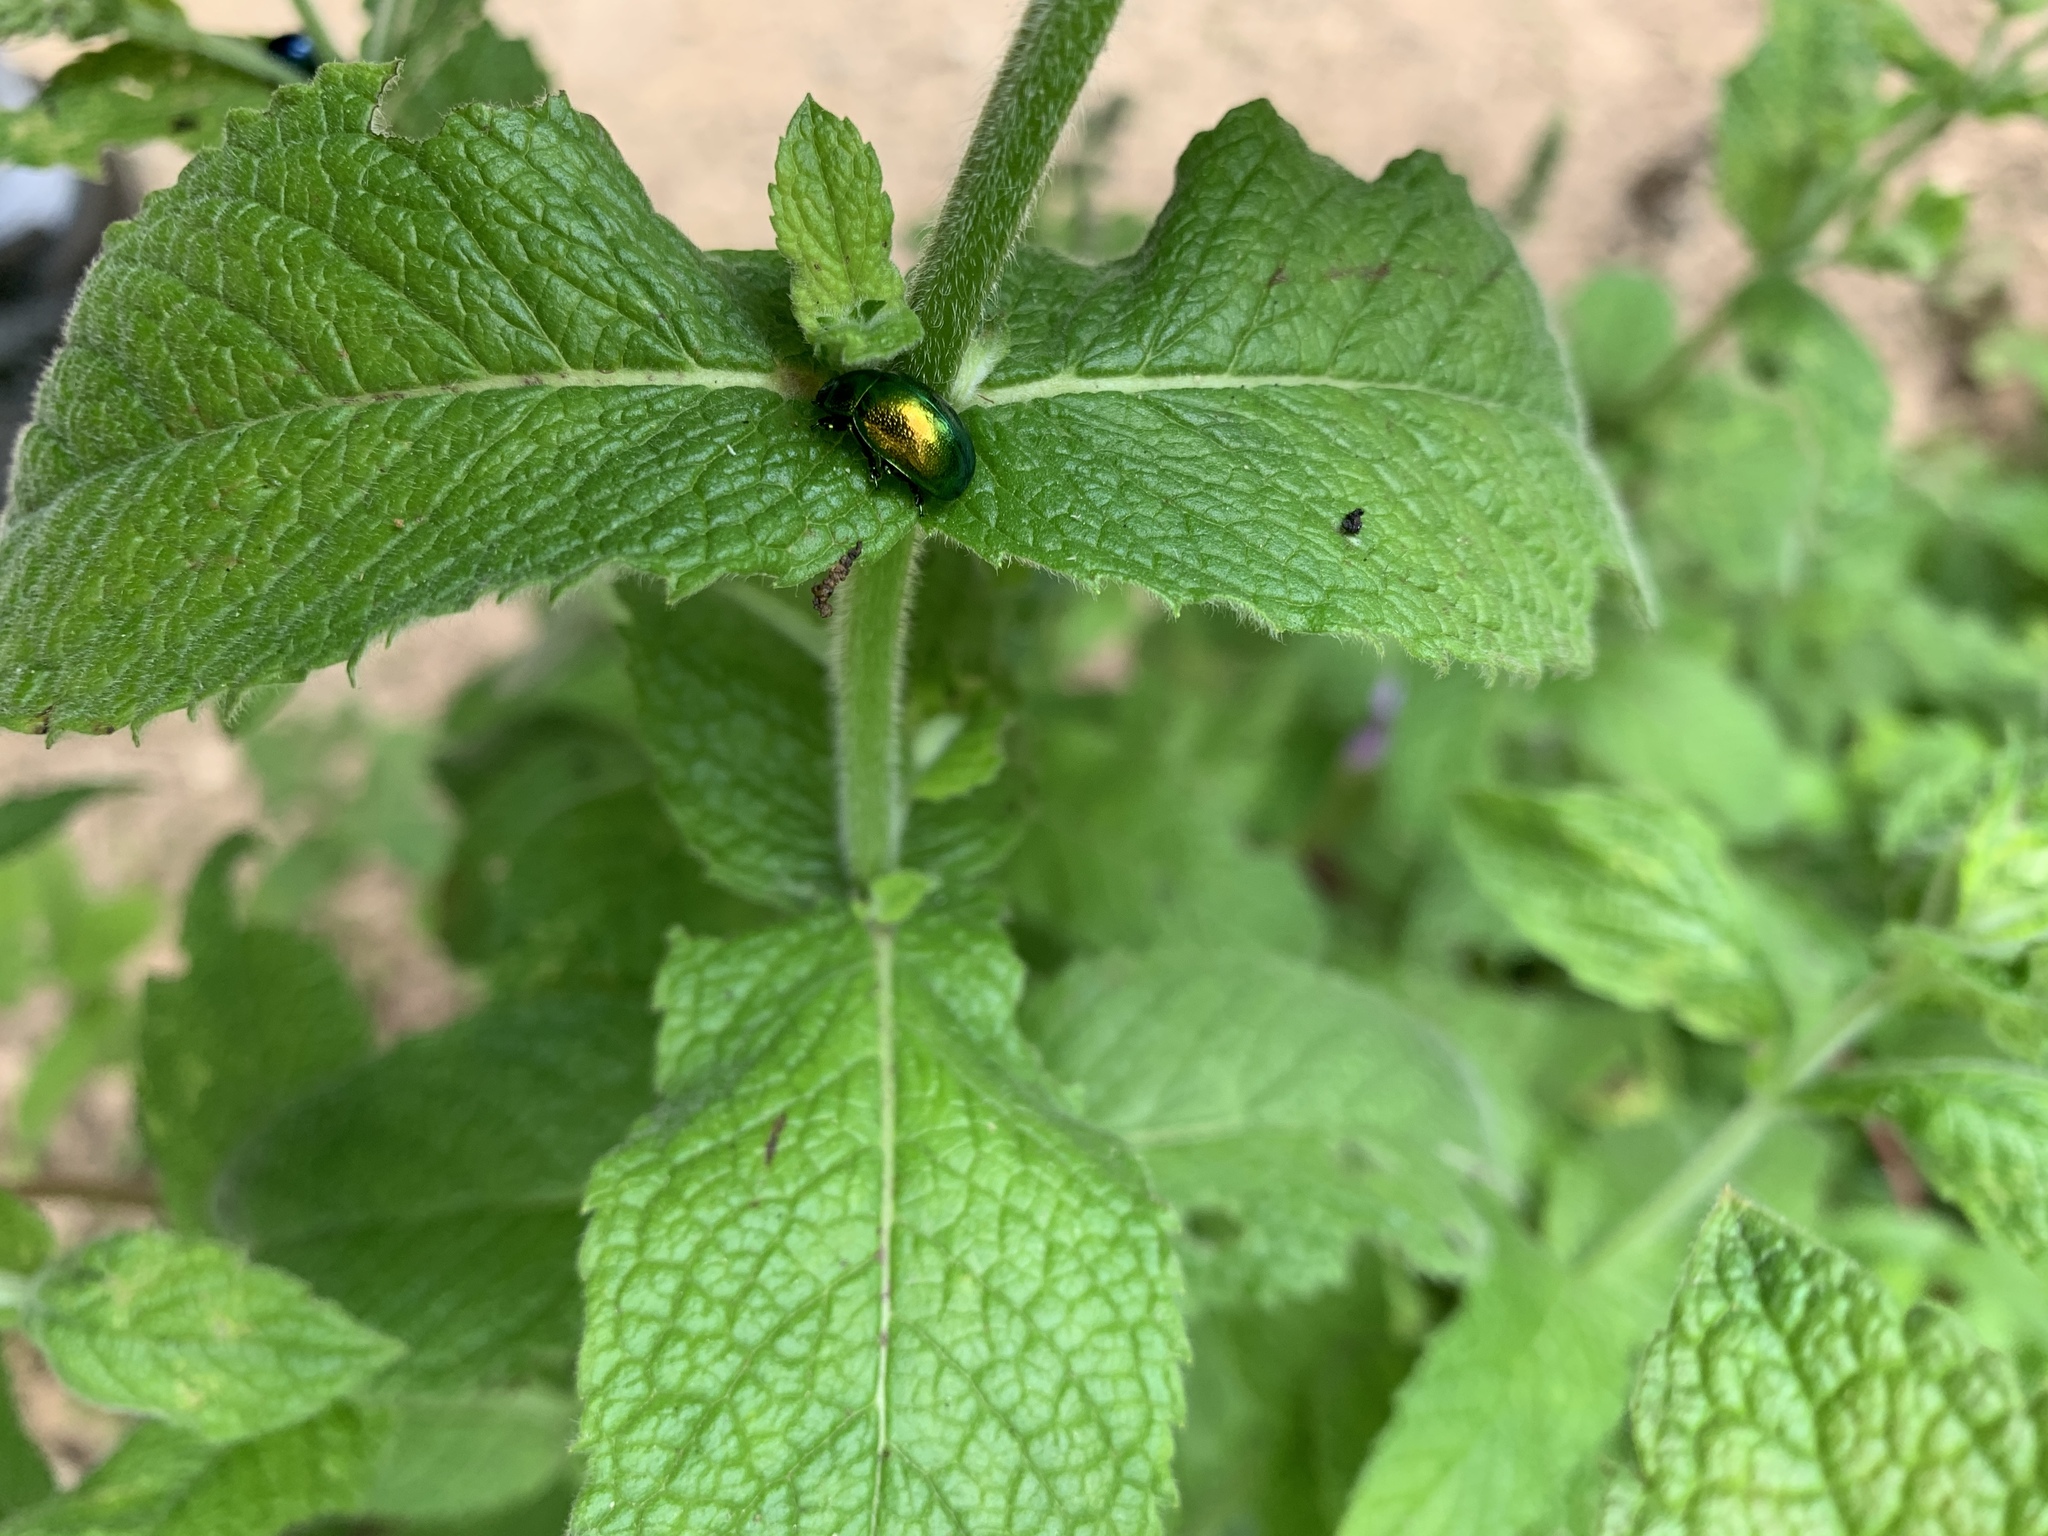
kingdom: Animalia
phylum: Arthropoda
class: Insecta
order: Coleoptera
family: Chrysomelidae
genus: Chrysolina
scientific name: Chrysolina herbacea
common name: Mint leaf beatle
